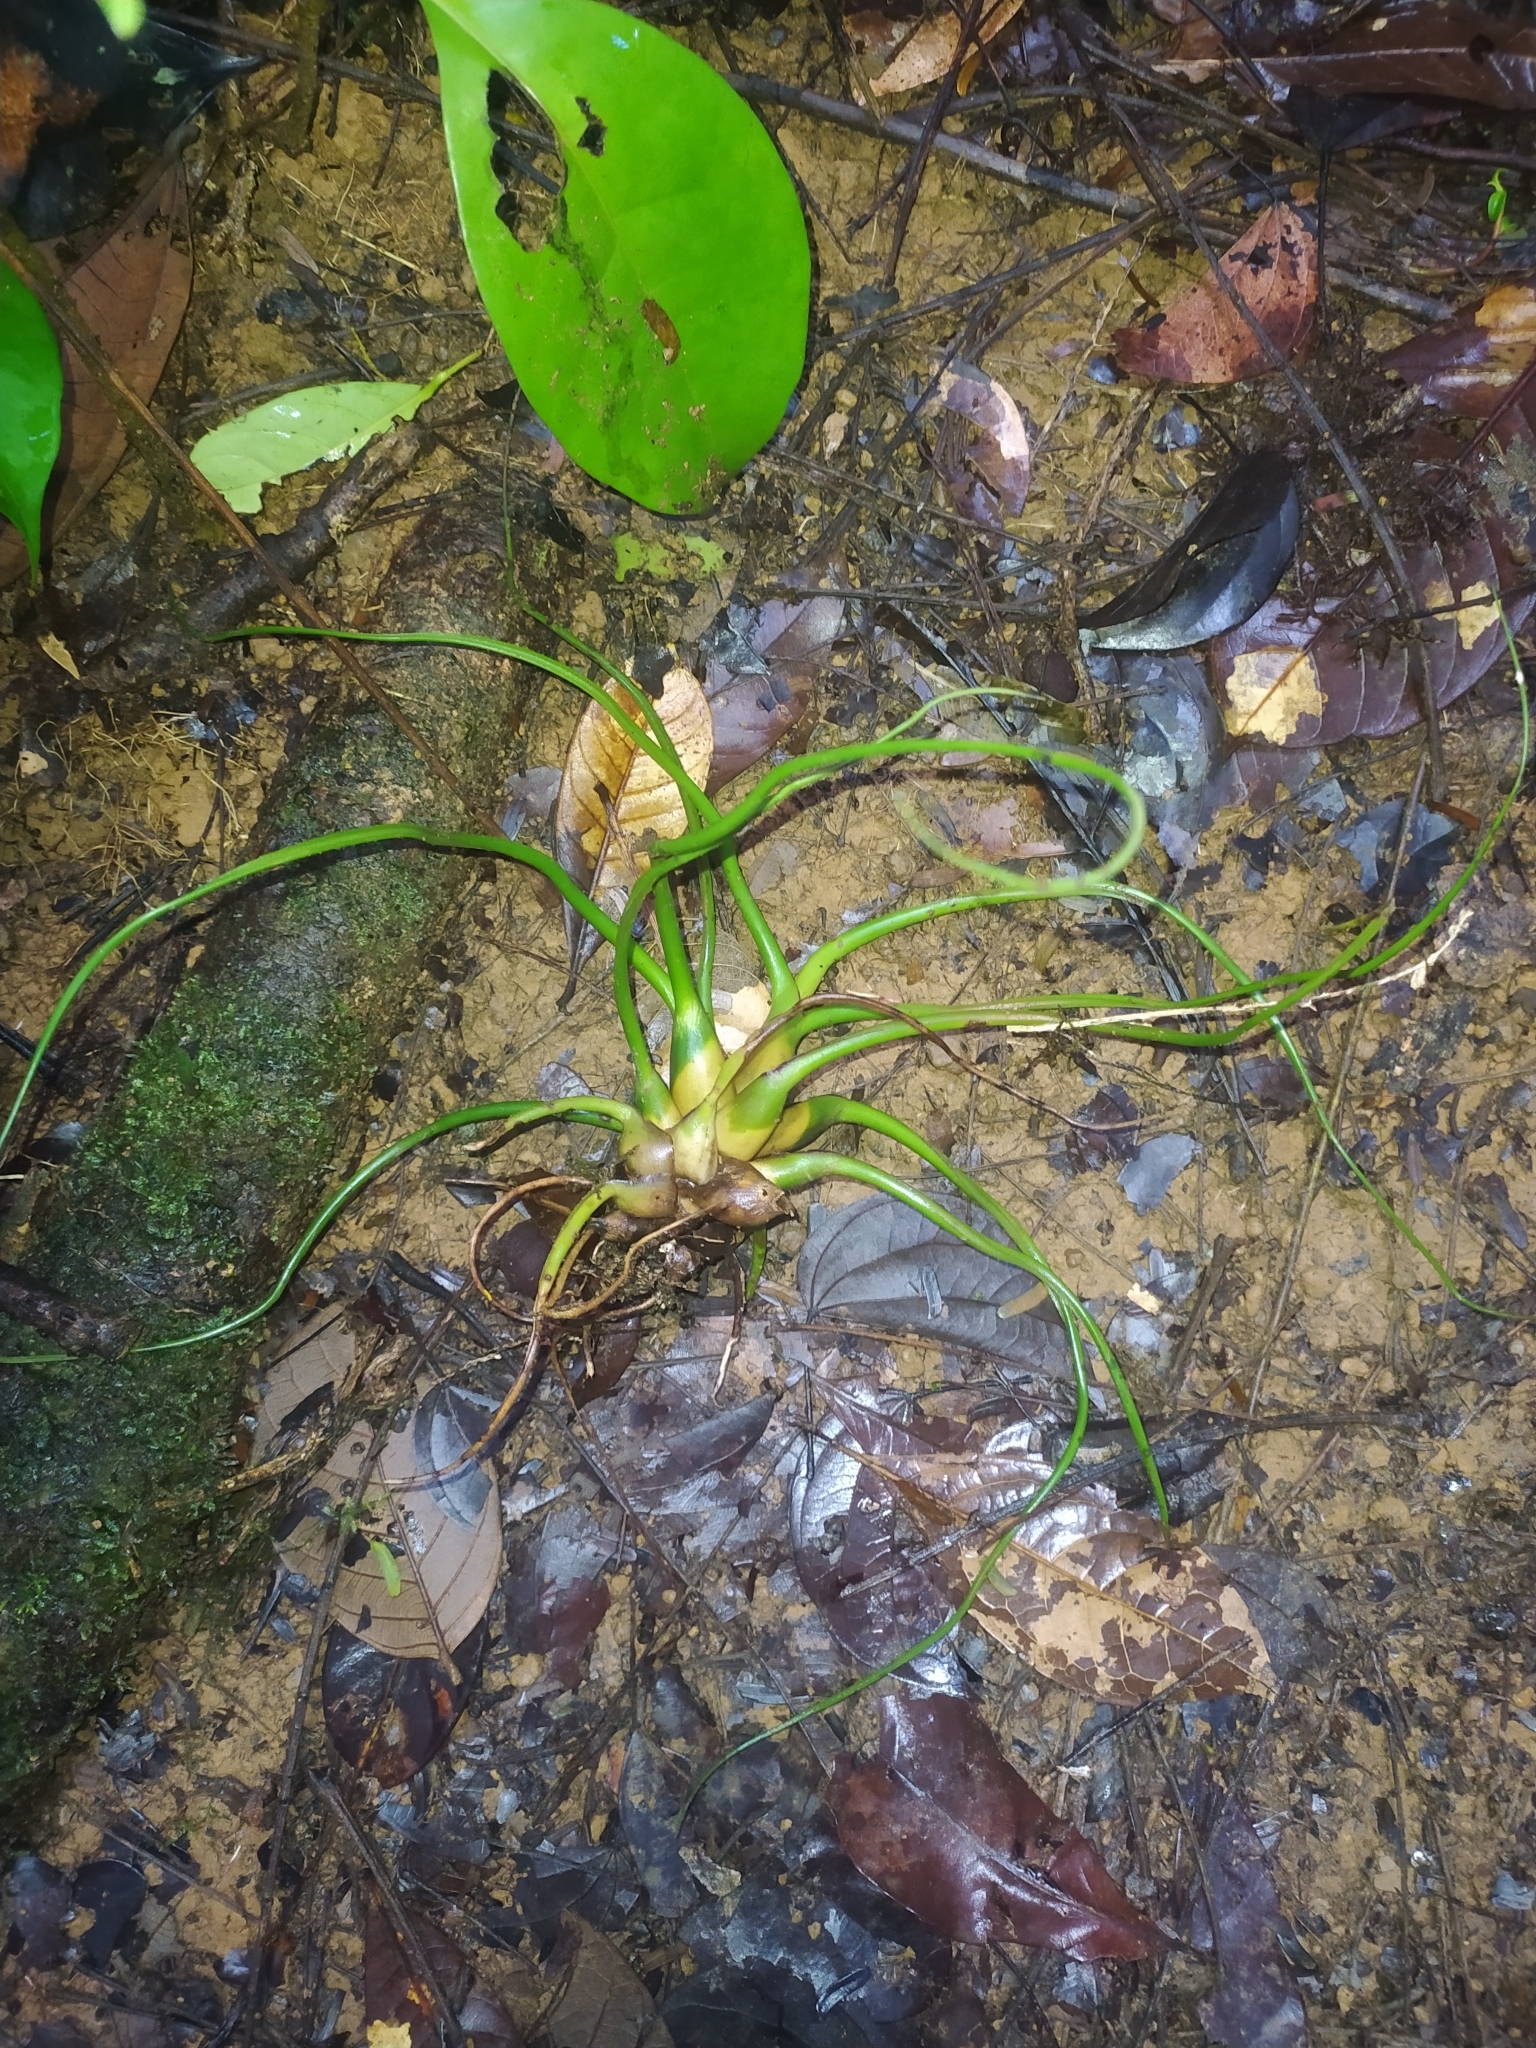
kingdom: Plantae
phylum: Tracheophyta
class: Liliopsida
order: Poales
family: Bromeliaceae
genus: Tillandsia
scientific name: Tillandsia bulbosa
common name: Bulbous airplant
